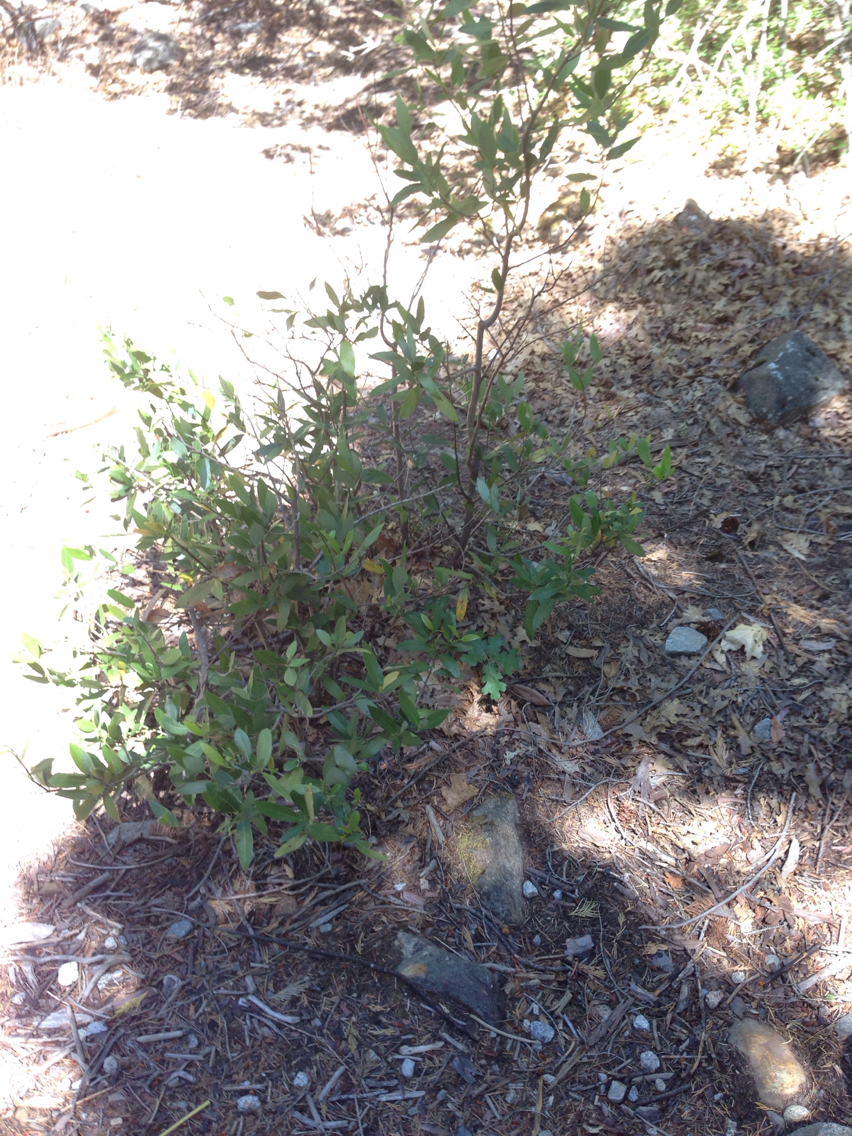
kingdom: Plantae
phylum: Tracheophyta
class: Magnoliopsida
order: Laurales
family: Lauraceae
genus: Umbellularia
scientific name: Umbellularia californica
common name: California bay
